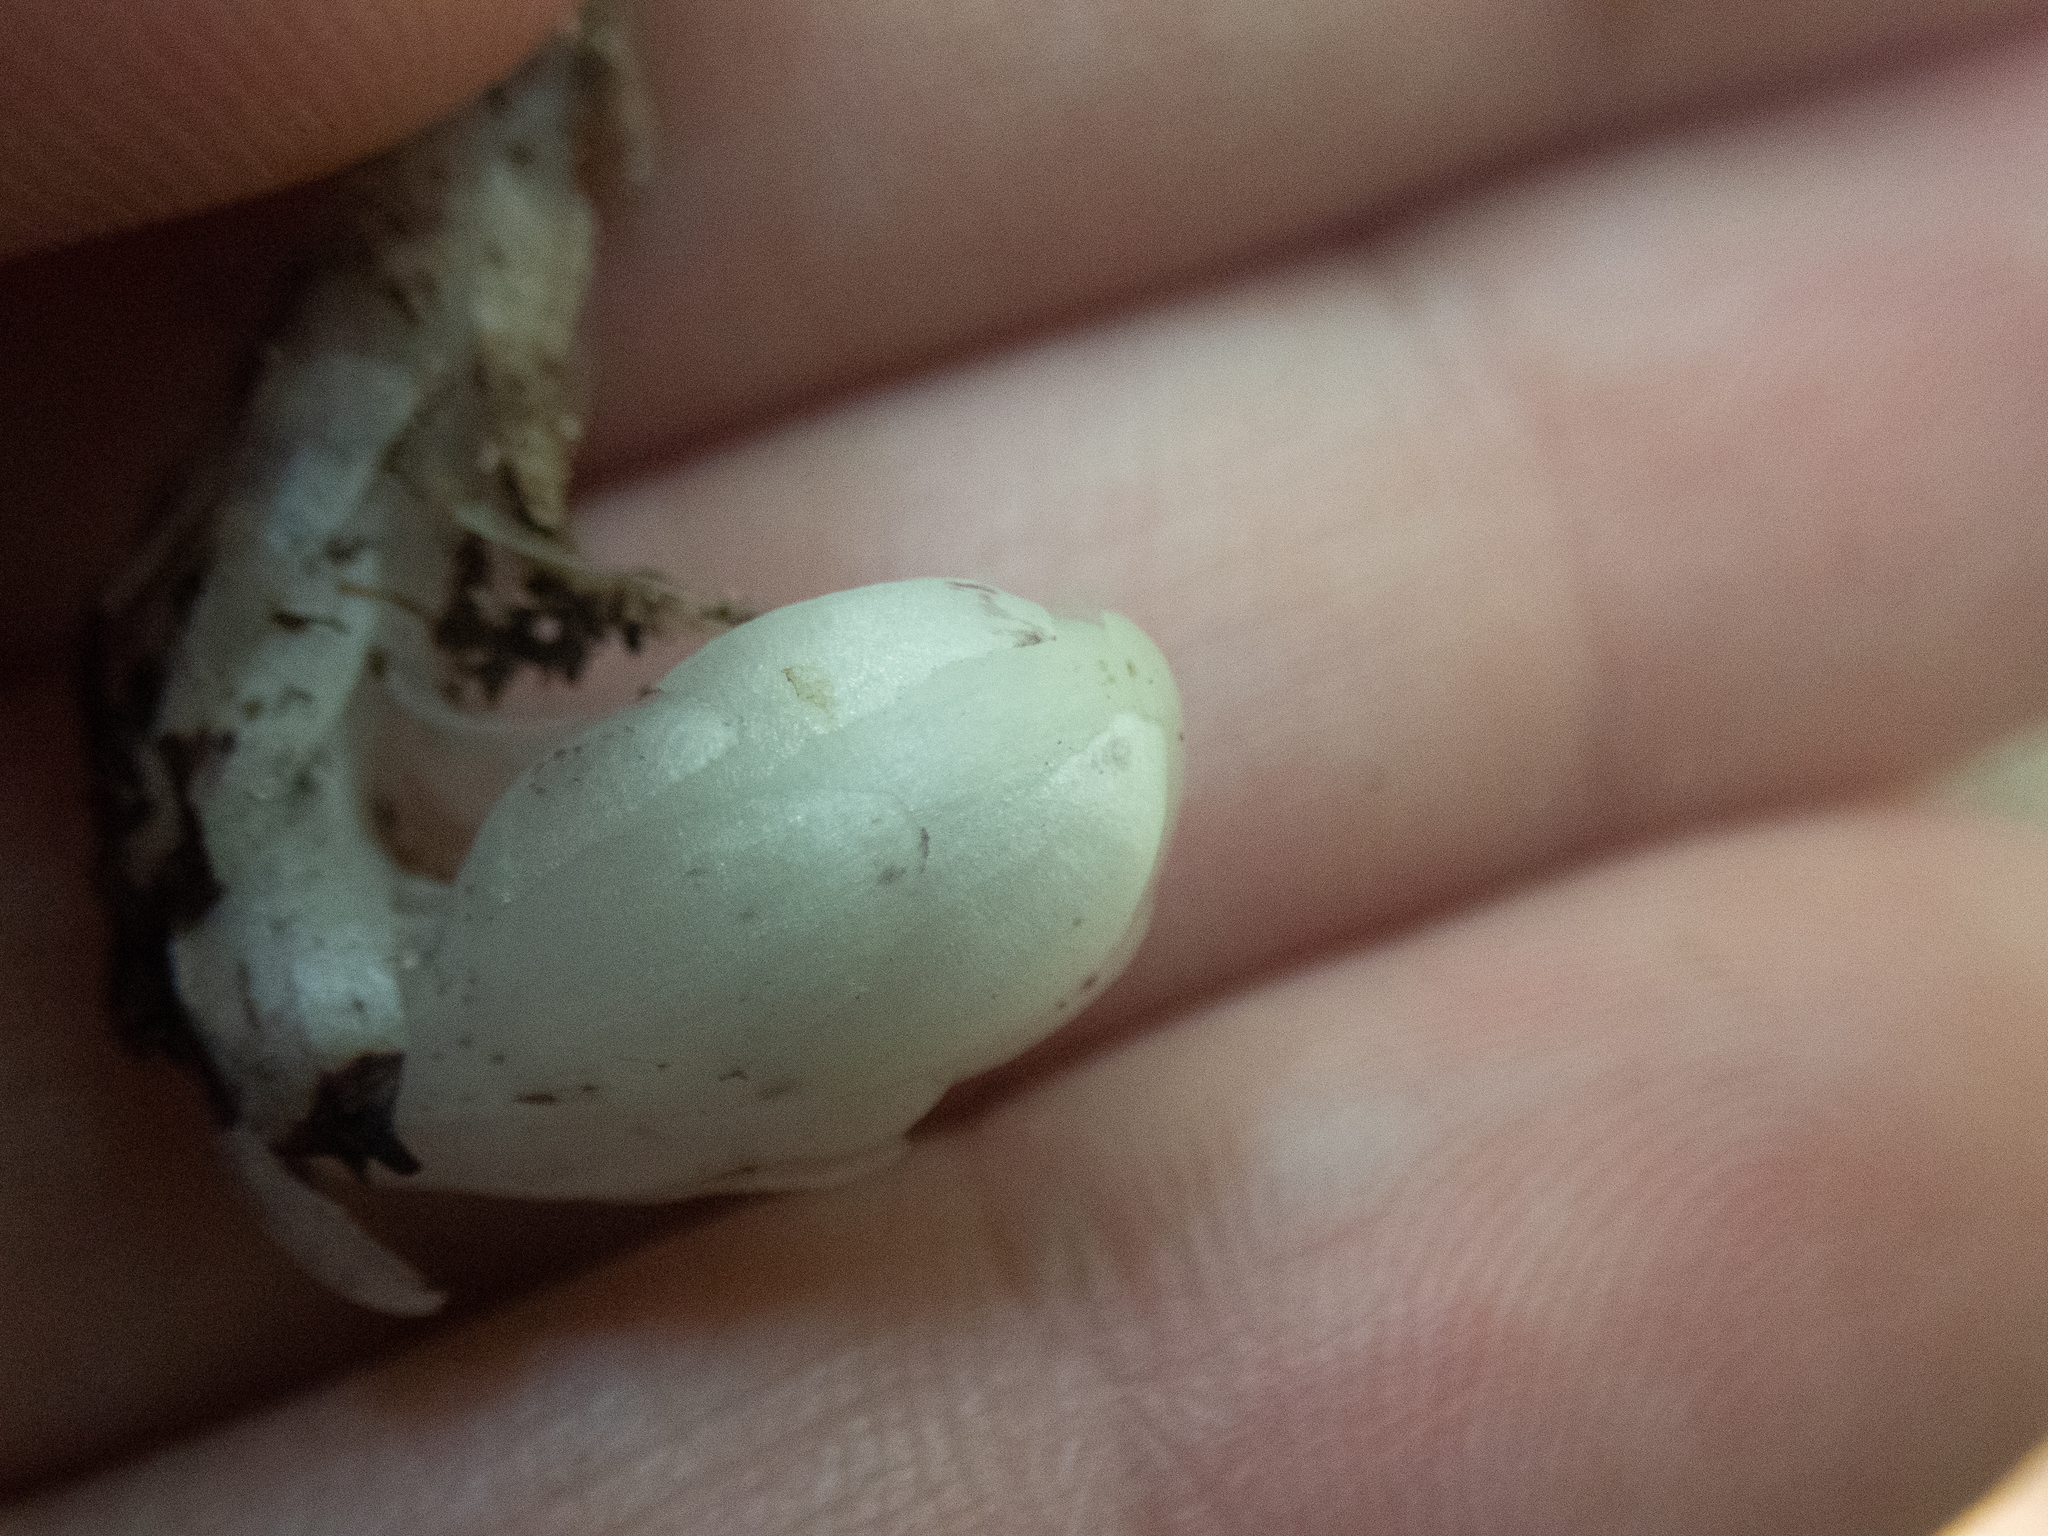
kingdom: Plantae
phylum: Tracheophyta
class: Magnoliopsida
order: Ericales
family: Ericaceae
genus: Monotropa
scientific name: Monotropa uniflora
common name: Convulsion root
